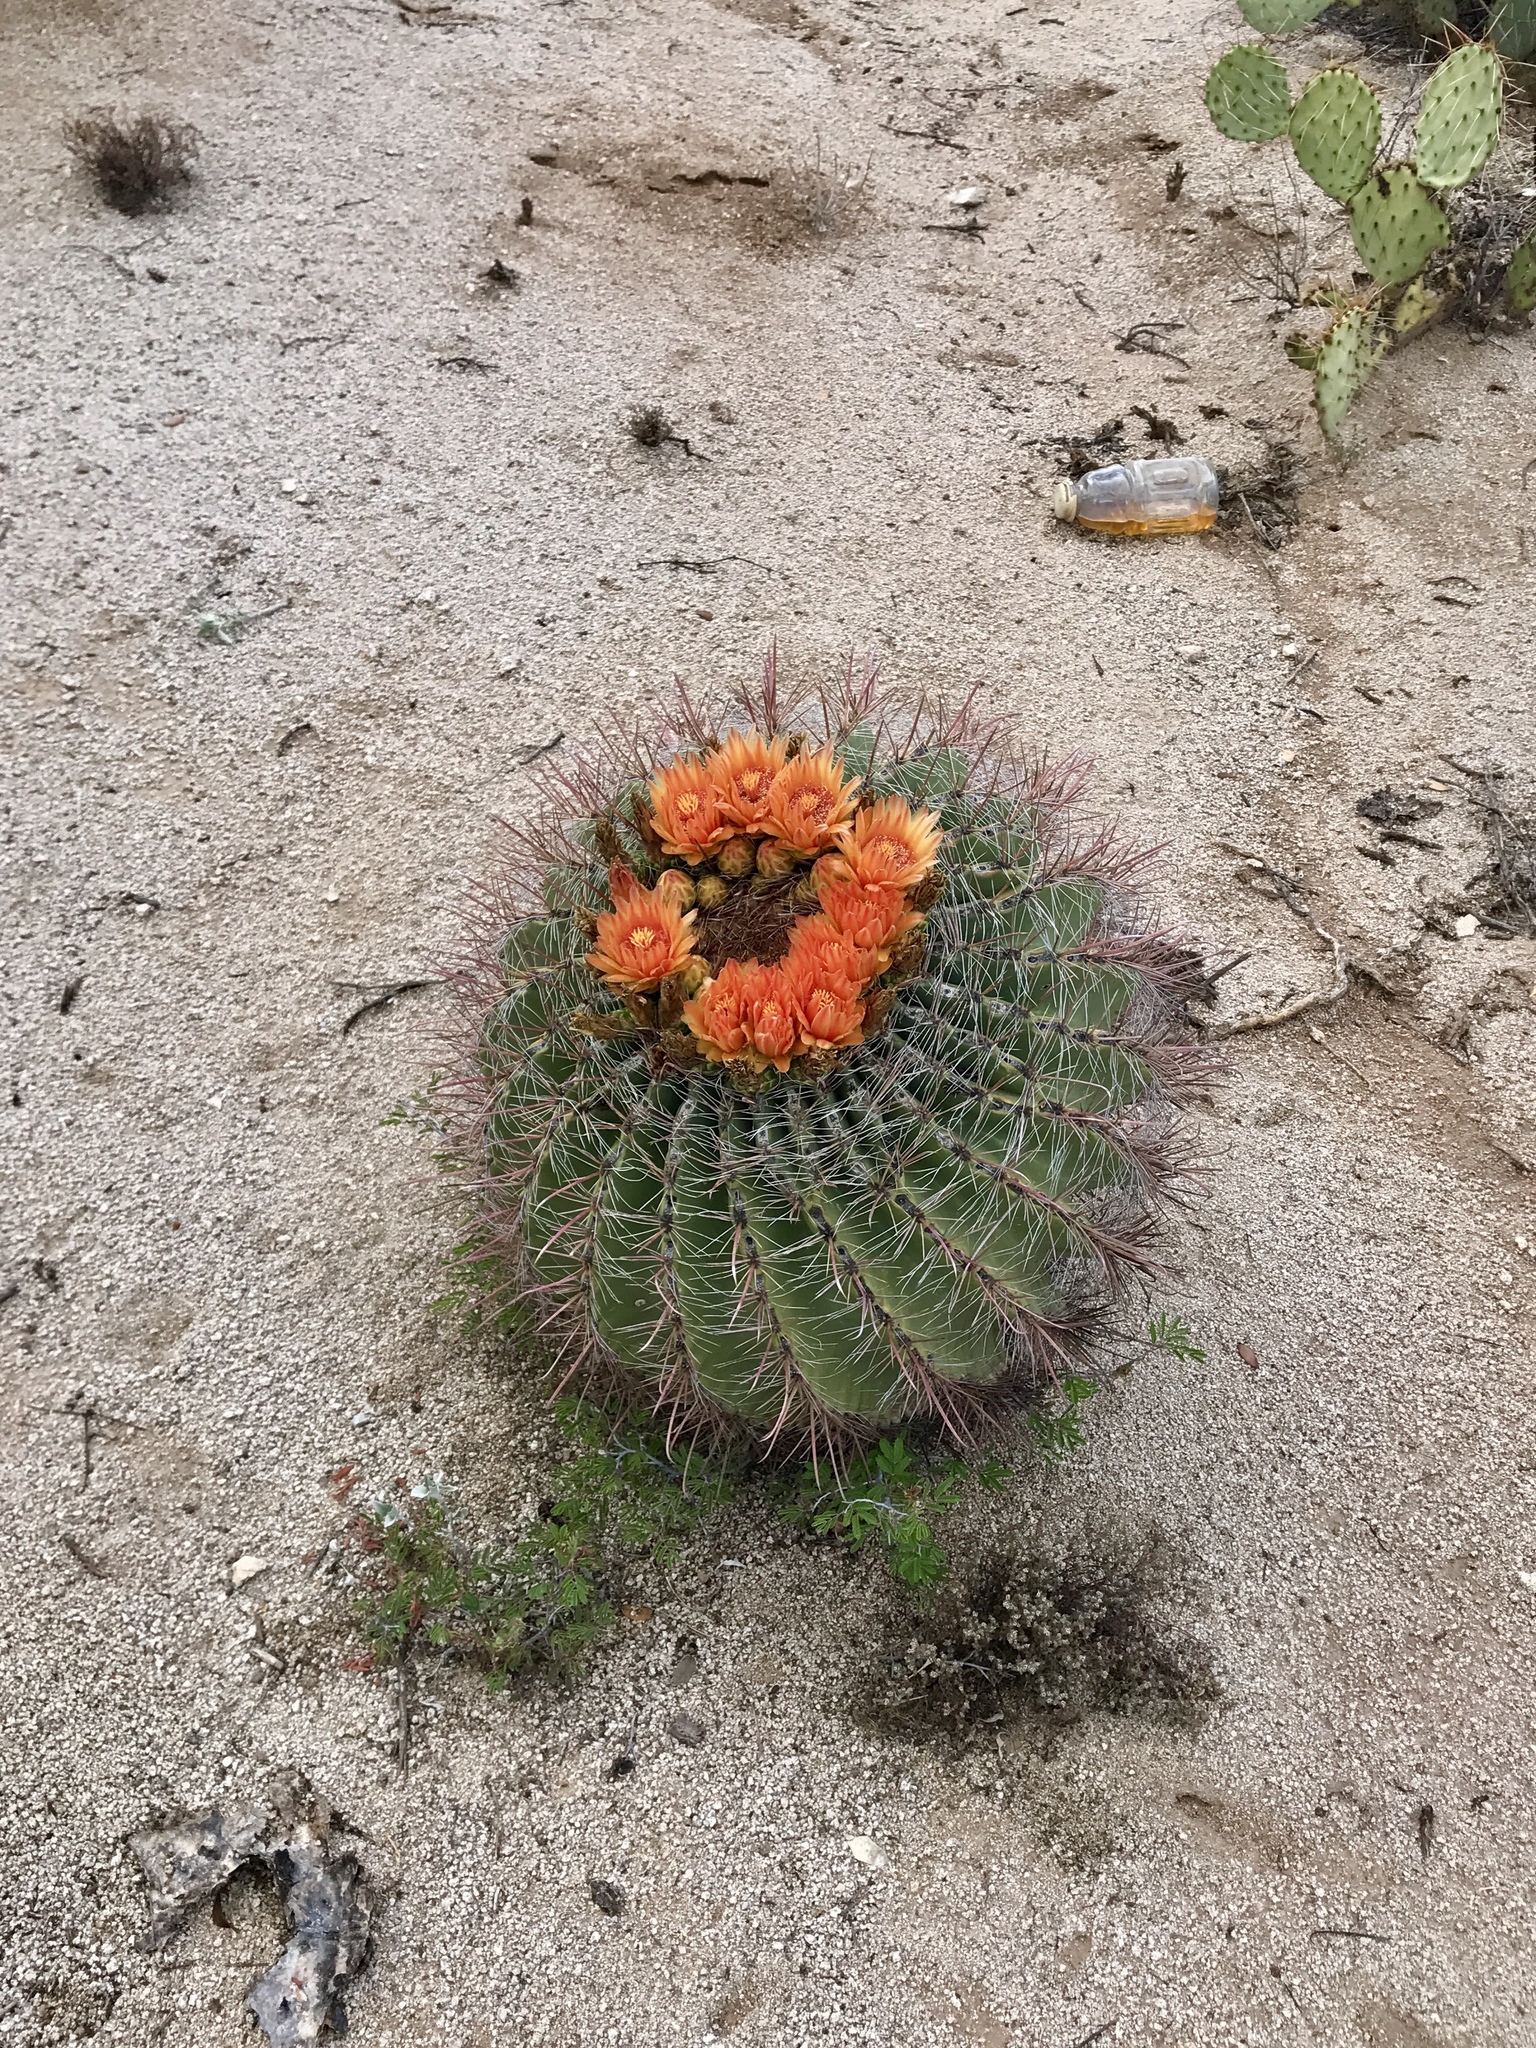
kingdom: Plantae
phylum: Tracheophyta
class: Magnoliopsida
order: Caryophyllales
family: Cactaceae
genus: Ferocactus
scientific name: Ferocactus wislizeni
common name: Candy barrel cactus
